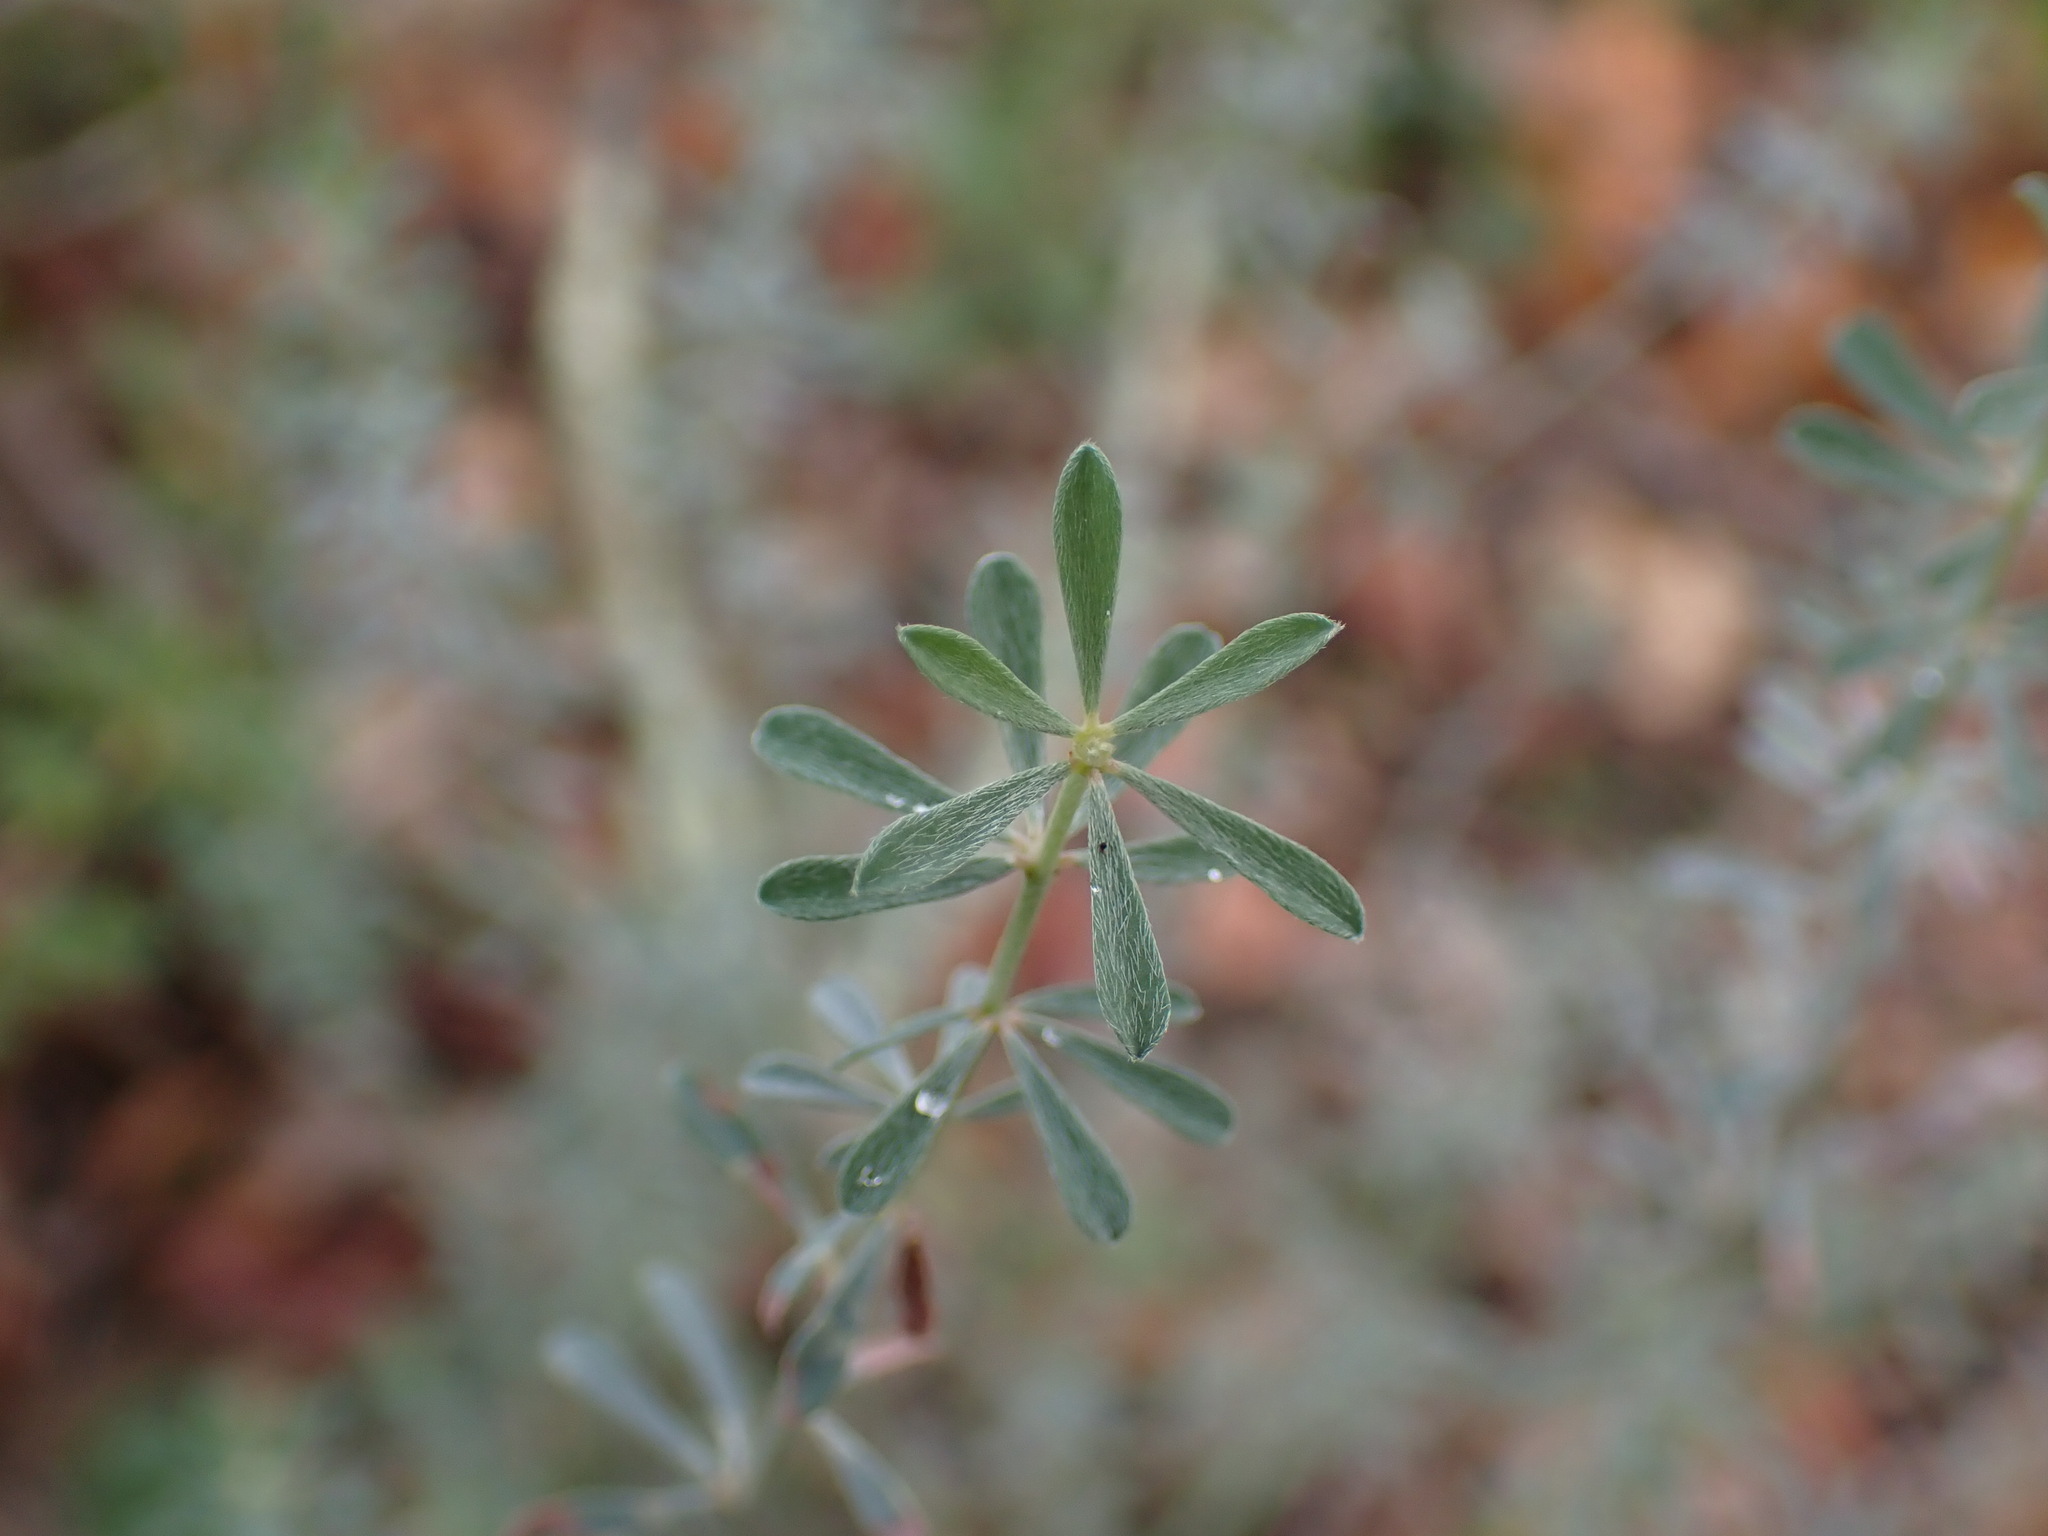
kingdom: Plantae
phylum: Tracheophyta
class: Magnoliopsida
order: Fabales
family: Fabaceae
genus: Lotus
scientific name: Lotus dorycnium
